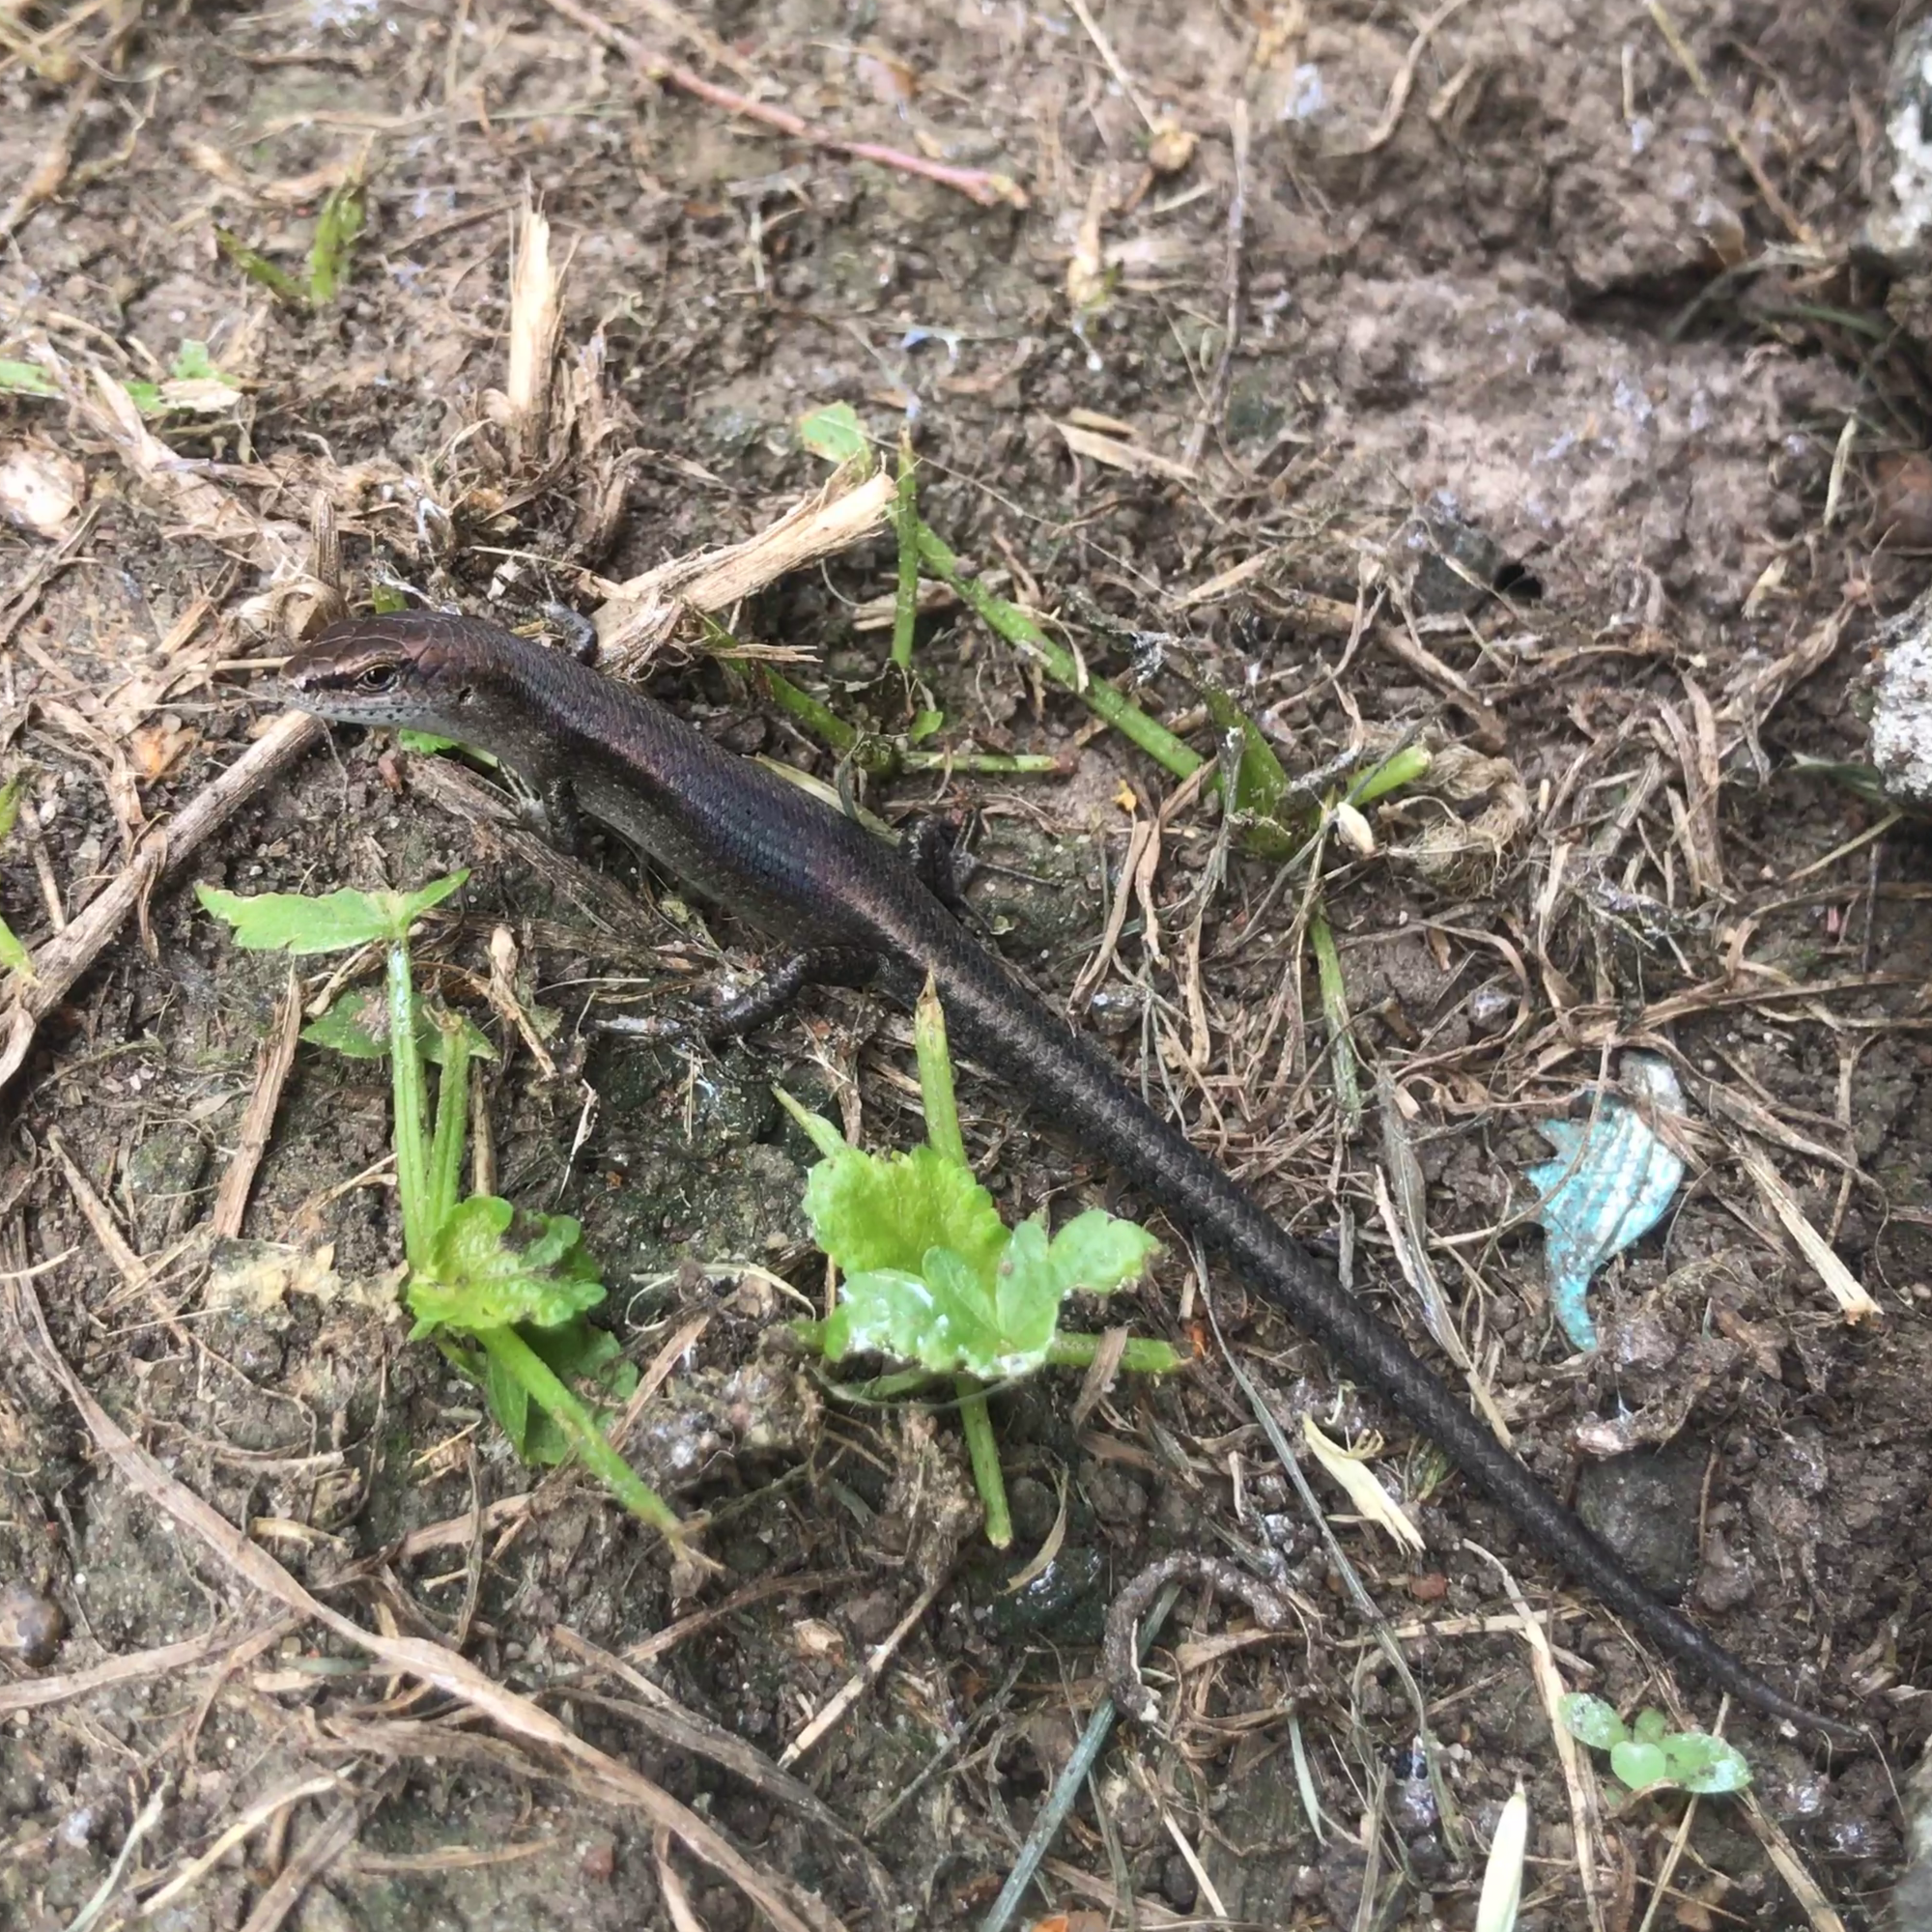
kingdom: Animalia
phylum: Chordata
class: Squamata
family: Scincidae
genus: Lampropholis
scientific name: Lampropholis guichenoti
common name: Garden skink
